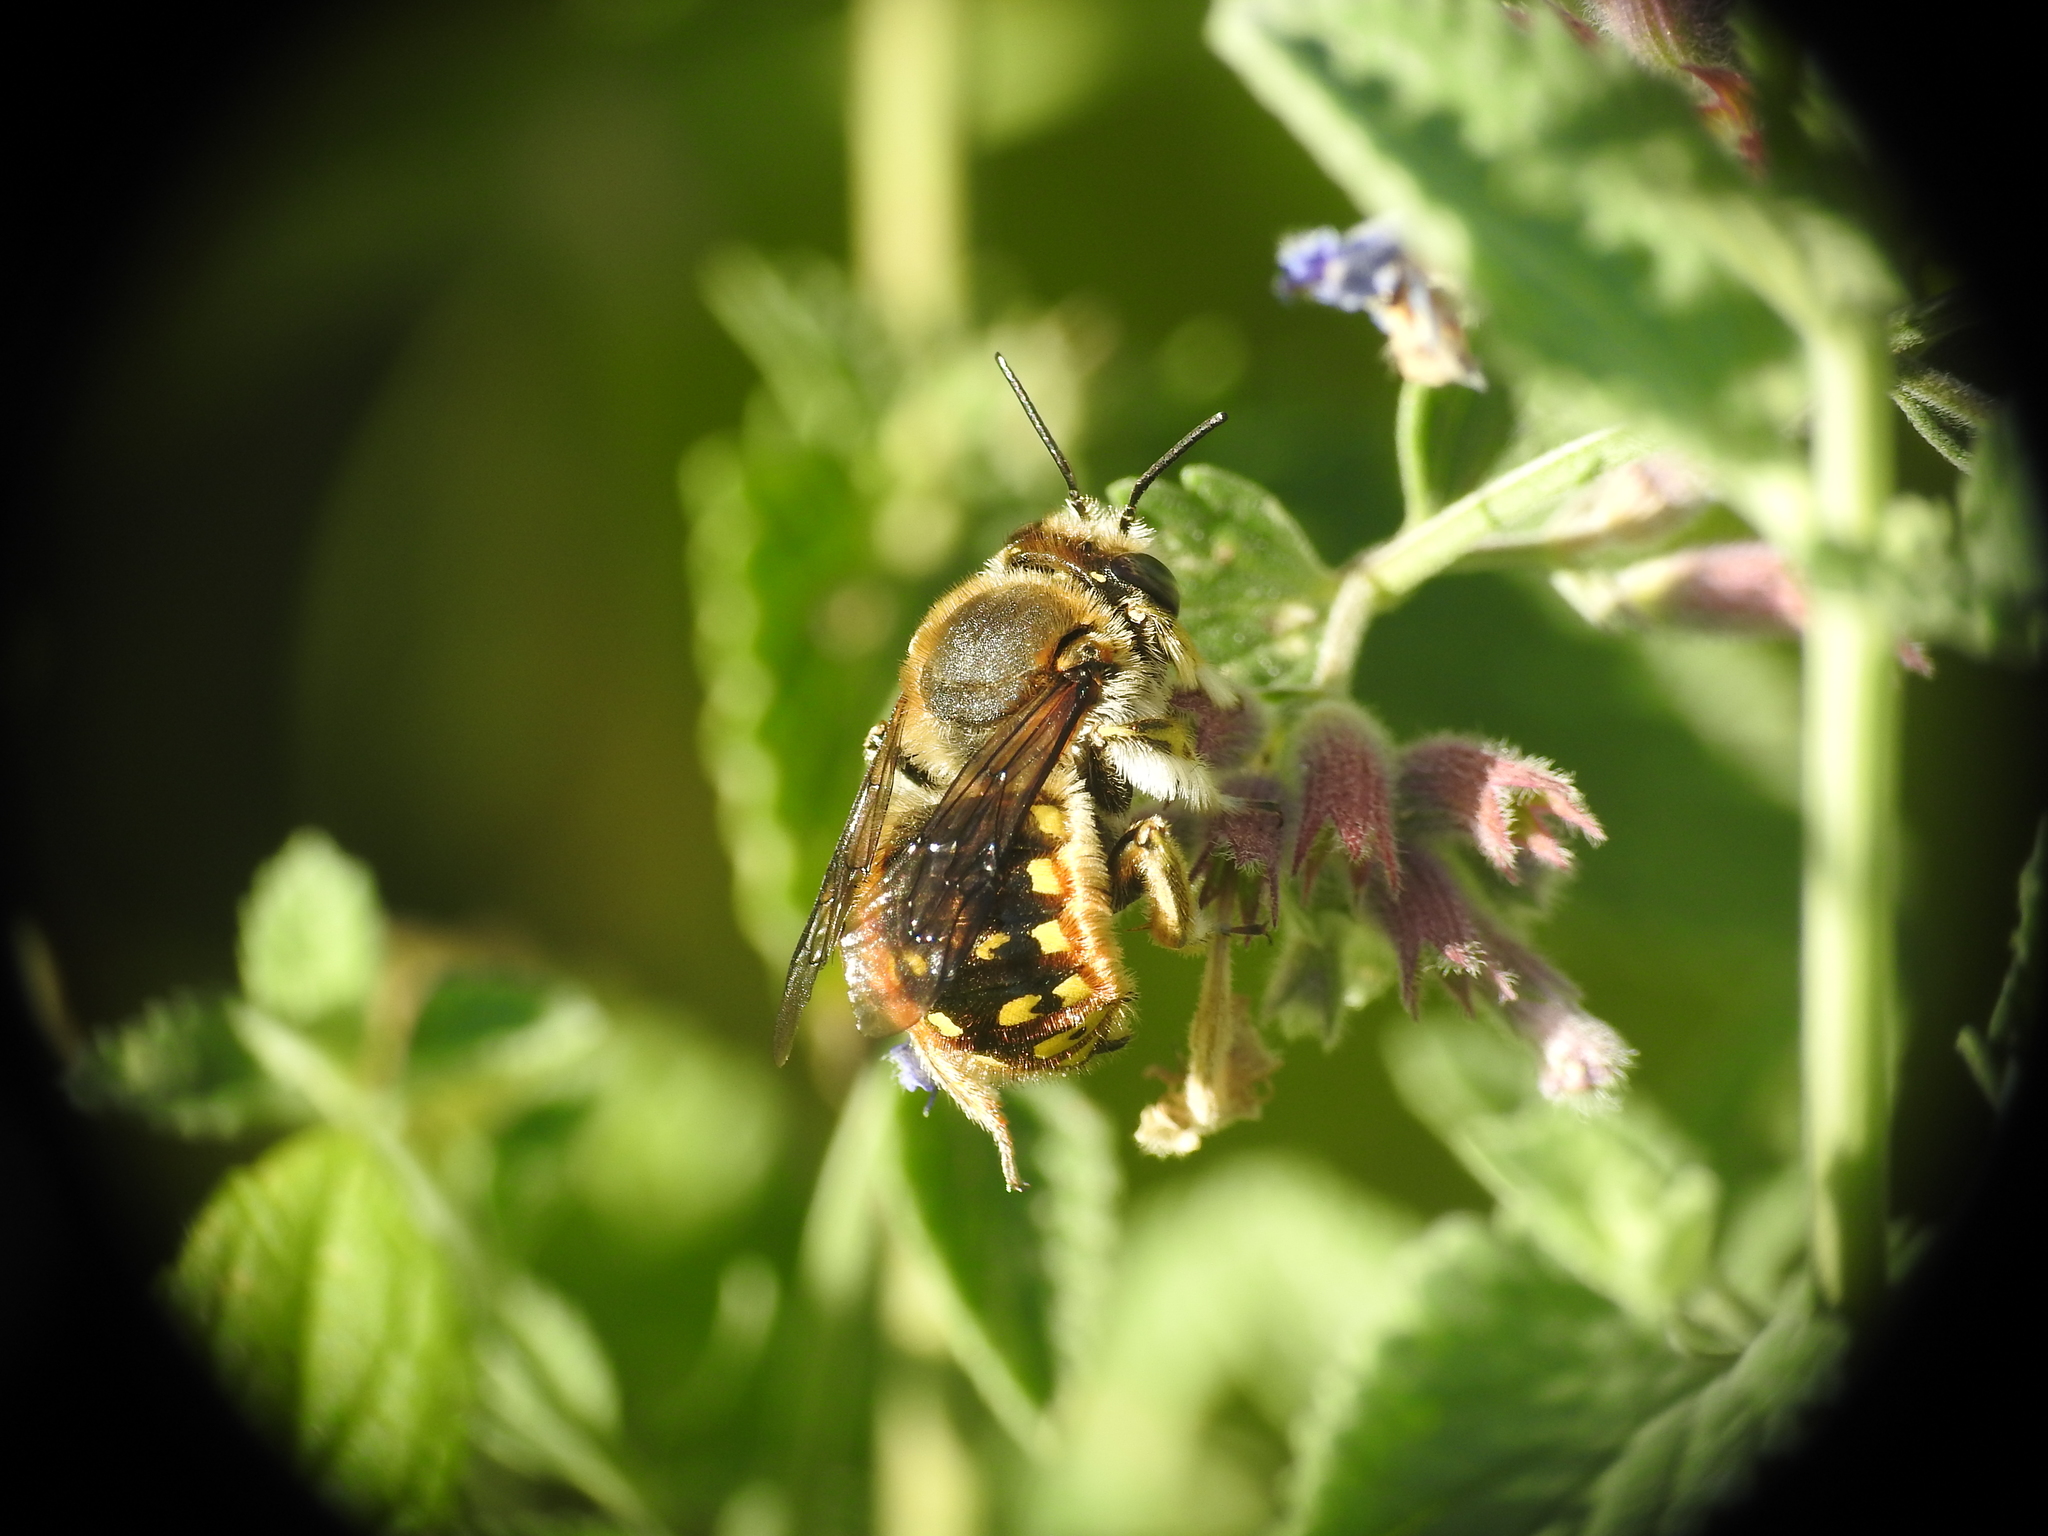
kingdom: Animalia
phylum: Arthropoda
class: Insecta
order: Hymenoptera
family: Megachilidae
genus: Anthidium
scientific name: Anthidium manicatum
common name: Wool carder bee
